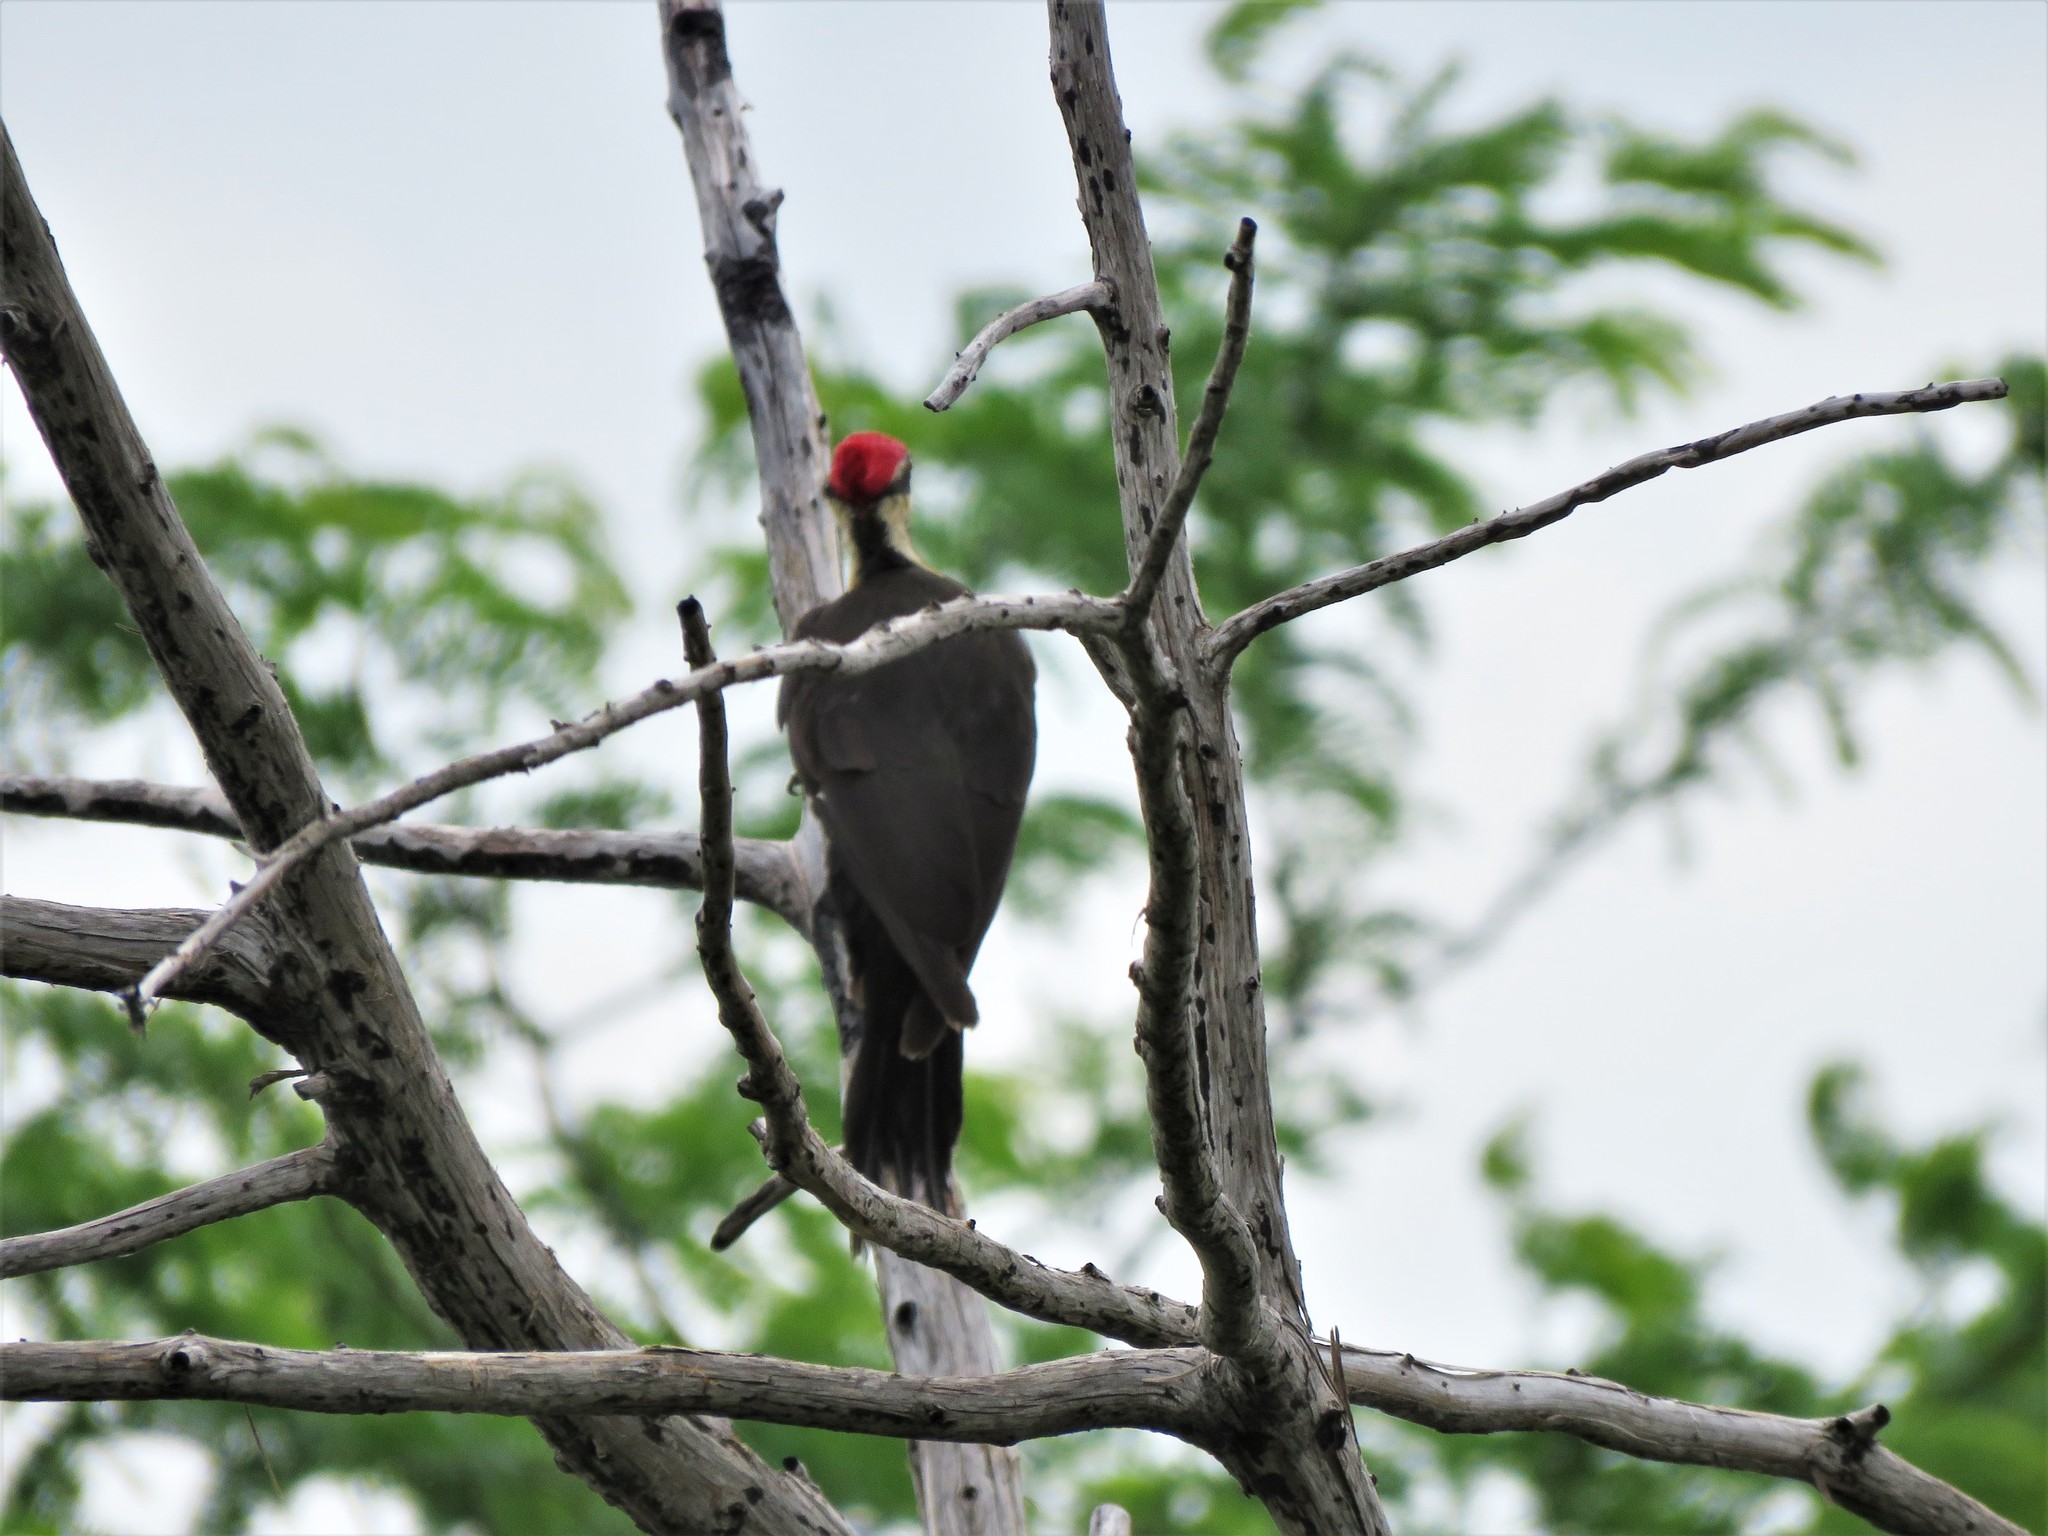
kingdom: Animalia
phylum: Chordata
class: Aves
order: Piciformes
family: Picidae
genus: Dryocopus
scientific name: Dryocopus pileatus
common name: Pileated woodpecker
